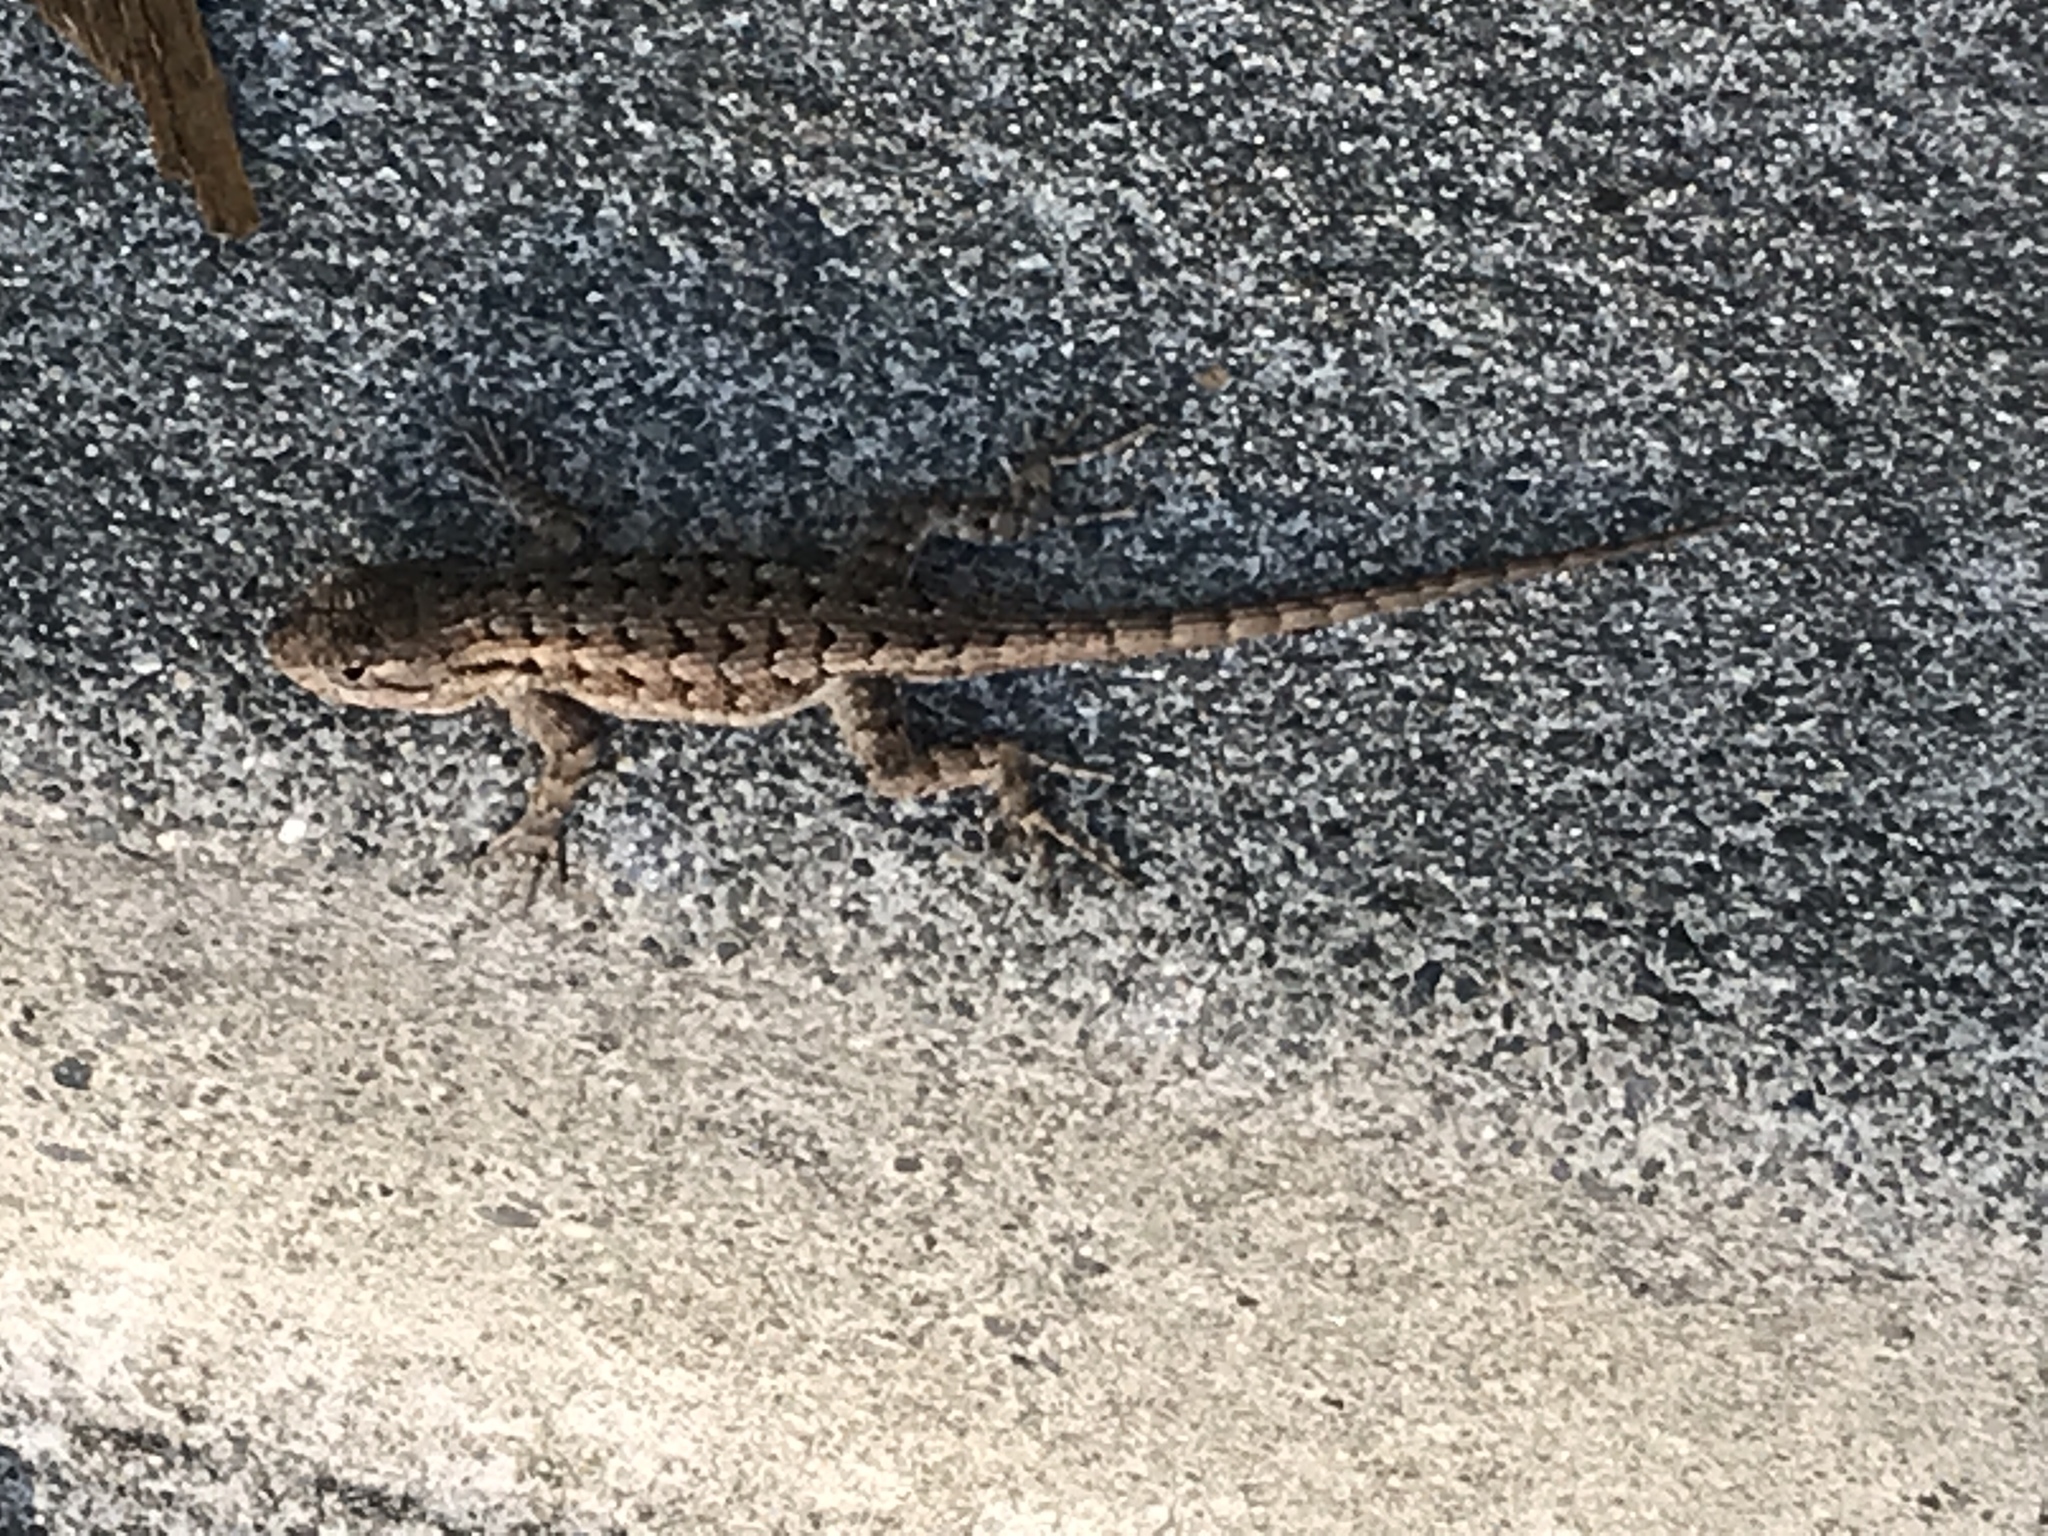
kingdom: Animalia
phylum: Chordata
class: Squamata
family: Phrynosomatidae
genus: Sceloporus
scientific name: Sceloporus occidentalis
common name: Western fence lizard
